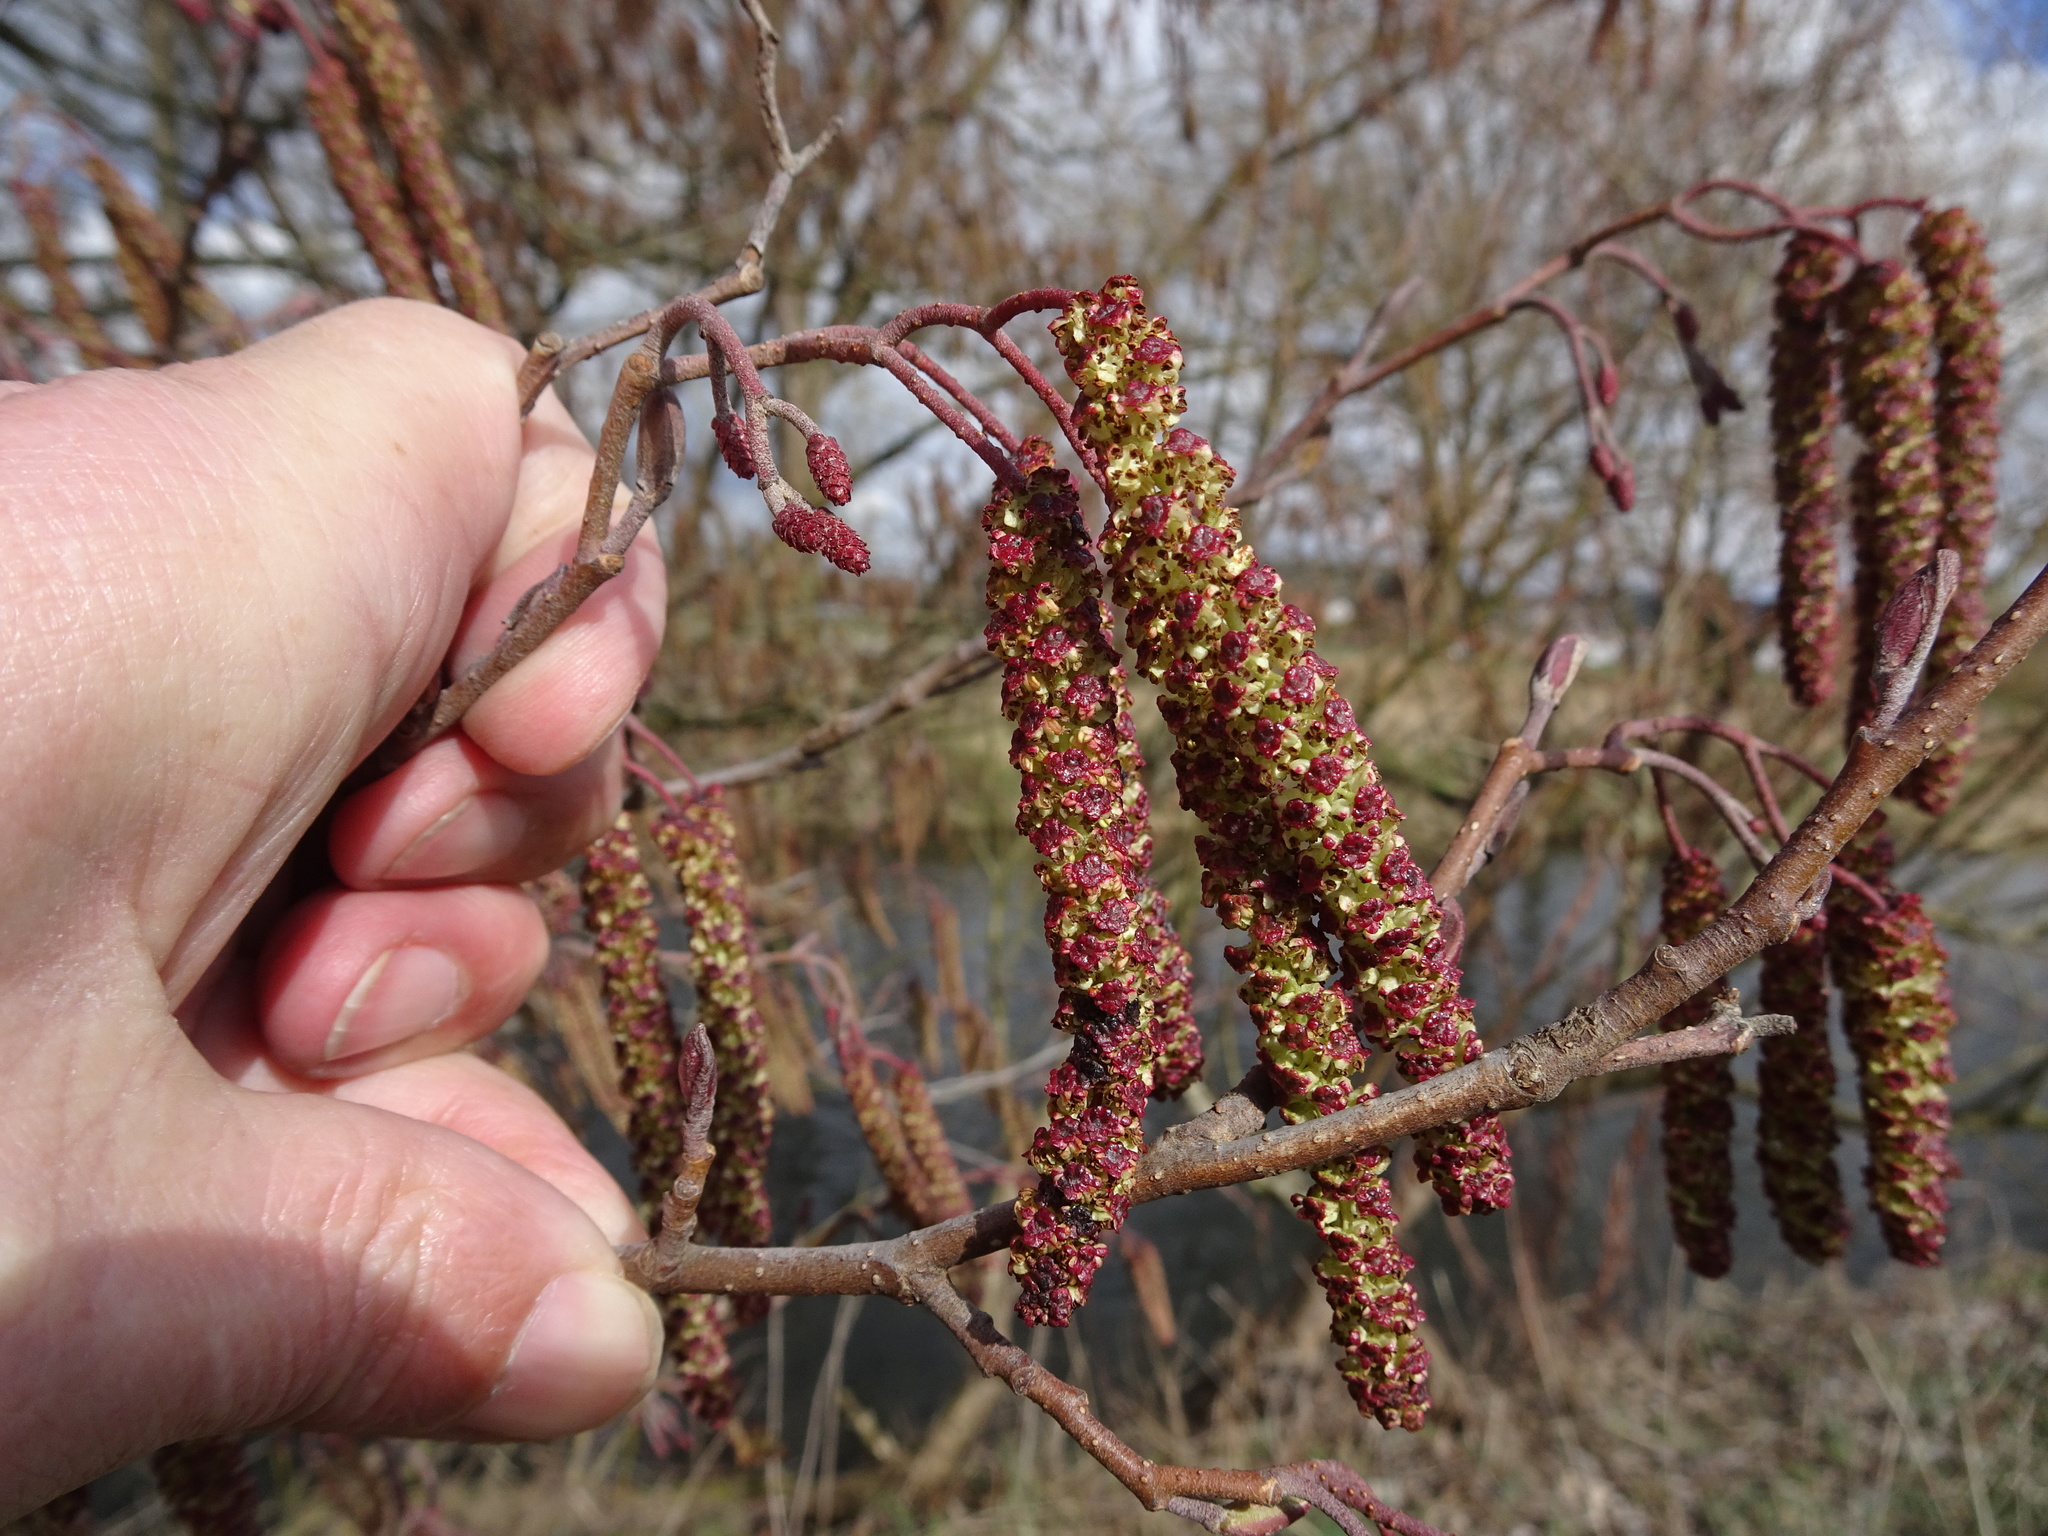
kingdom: Plantae
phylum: Tracheophyta
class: Magnoliopsida
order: Fagales
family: Betulaceae
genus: Alnus
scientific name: Alnus glutinosa
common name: Black alder
